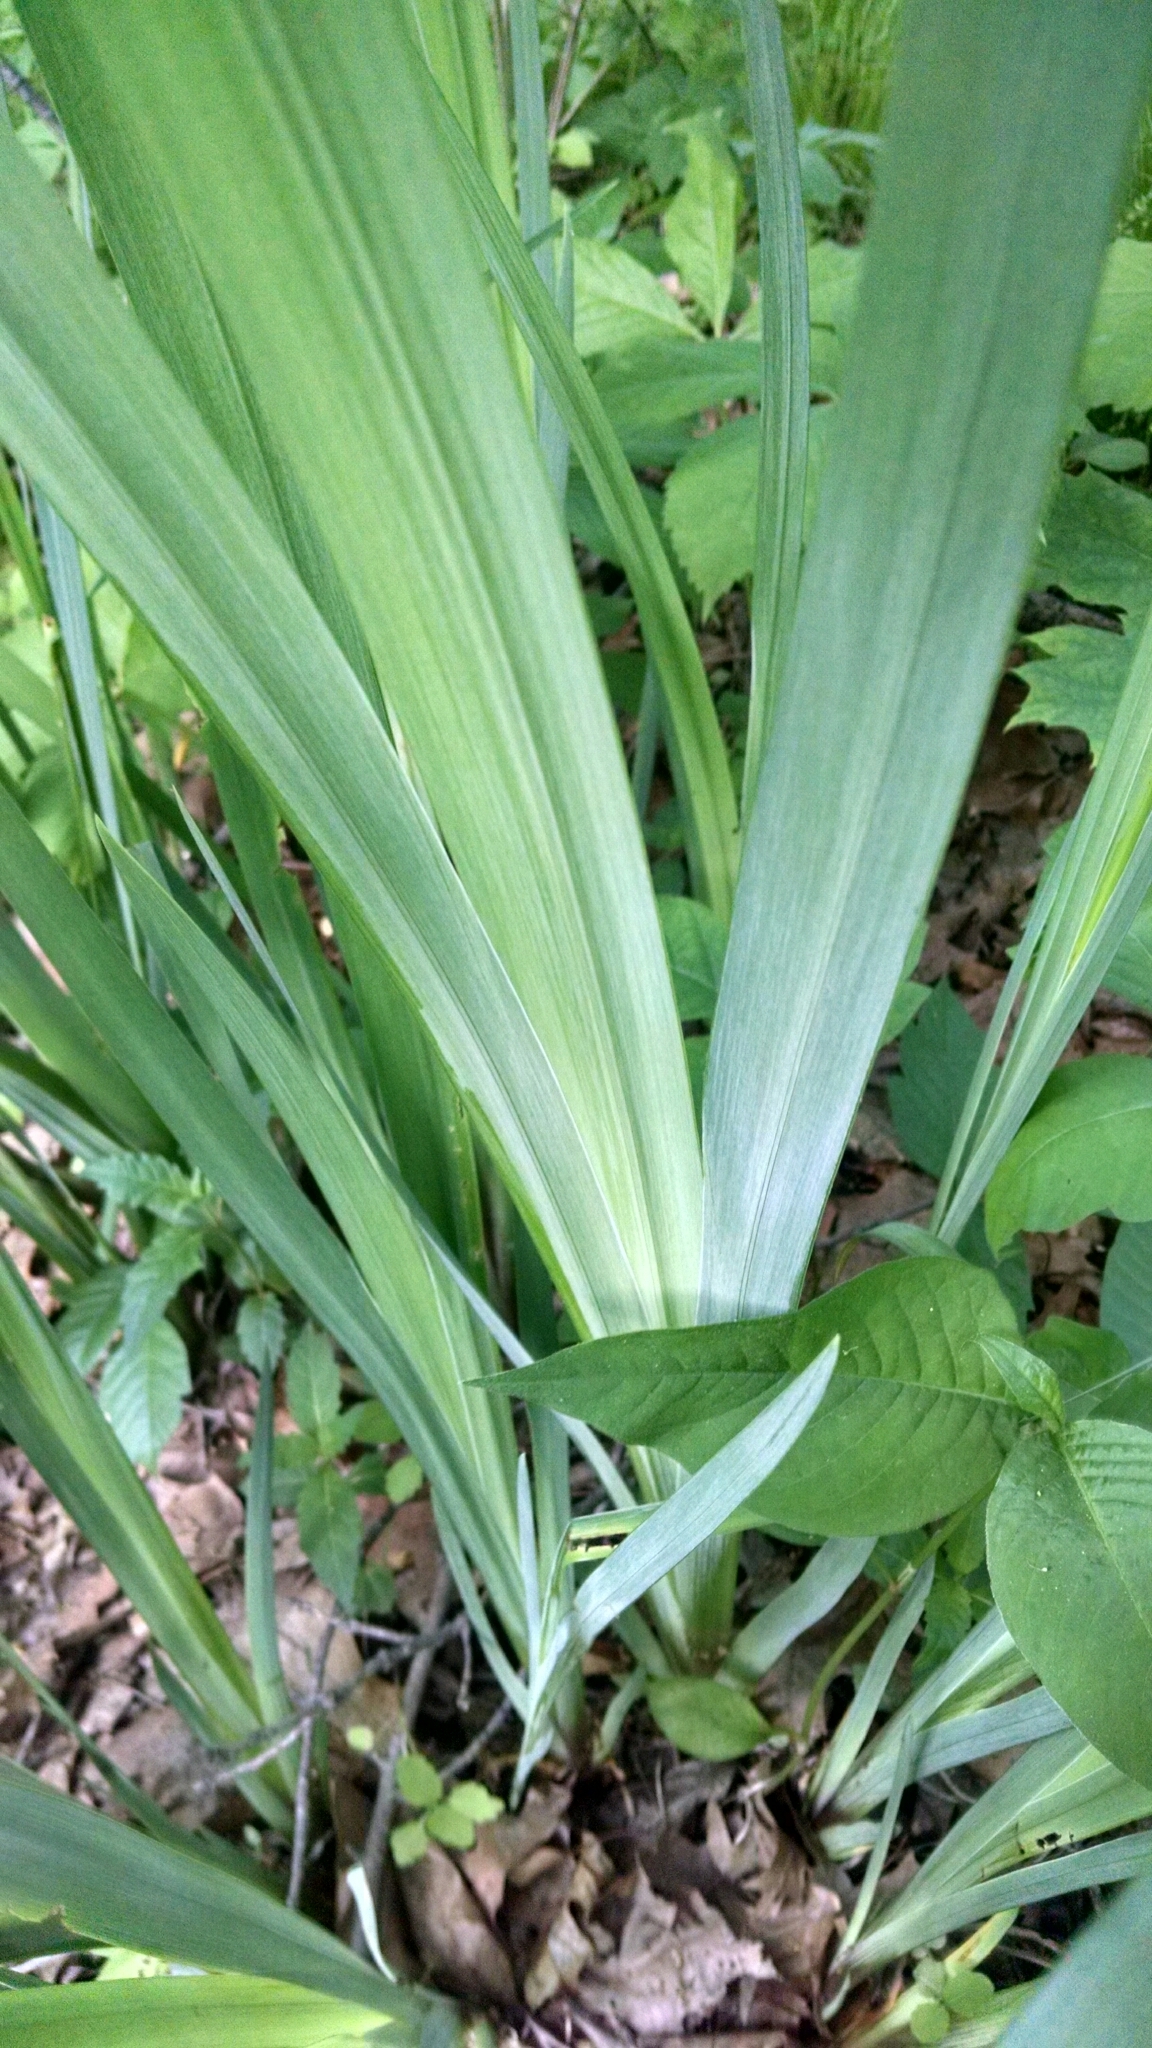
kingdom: Plantae
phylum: Tracheophyta
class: Liliopsida
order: Asparagales
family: Iridaceae
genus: Iris
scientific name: Iris pseudacorus
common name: Yellow flag
